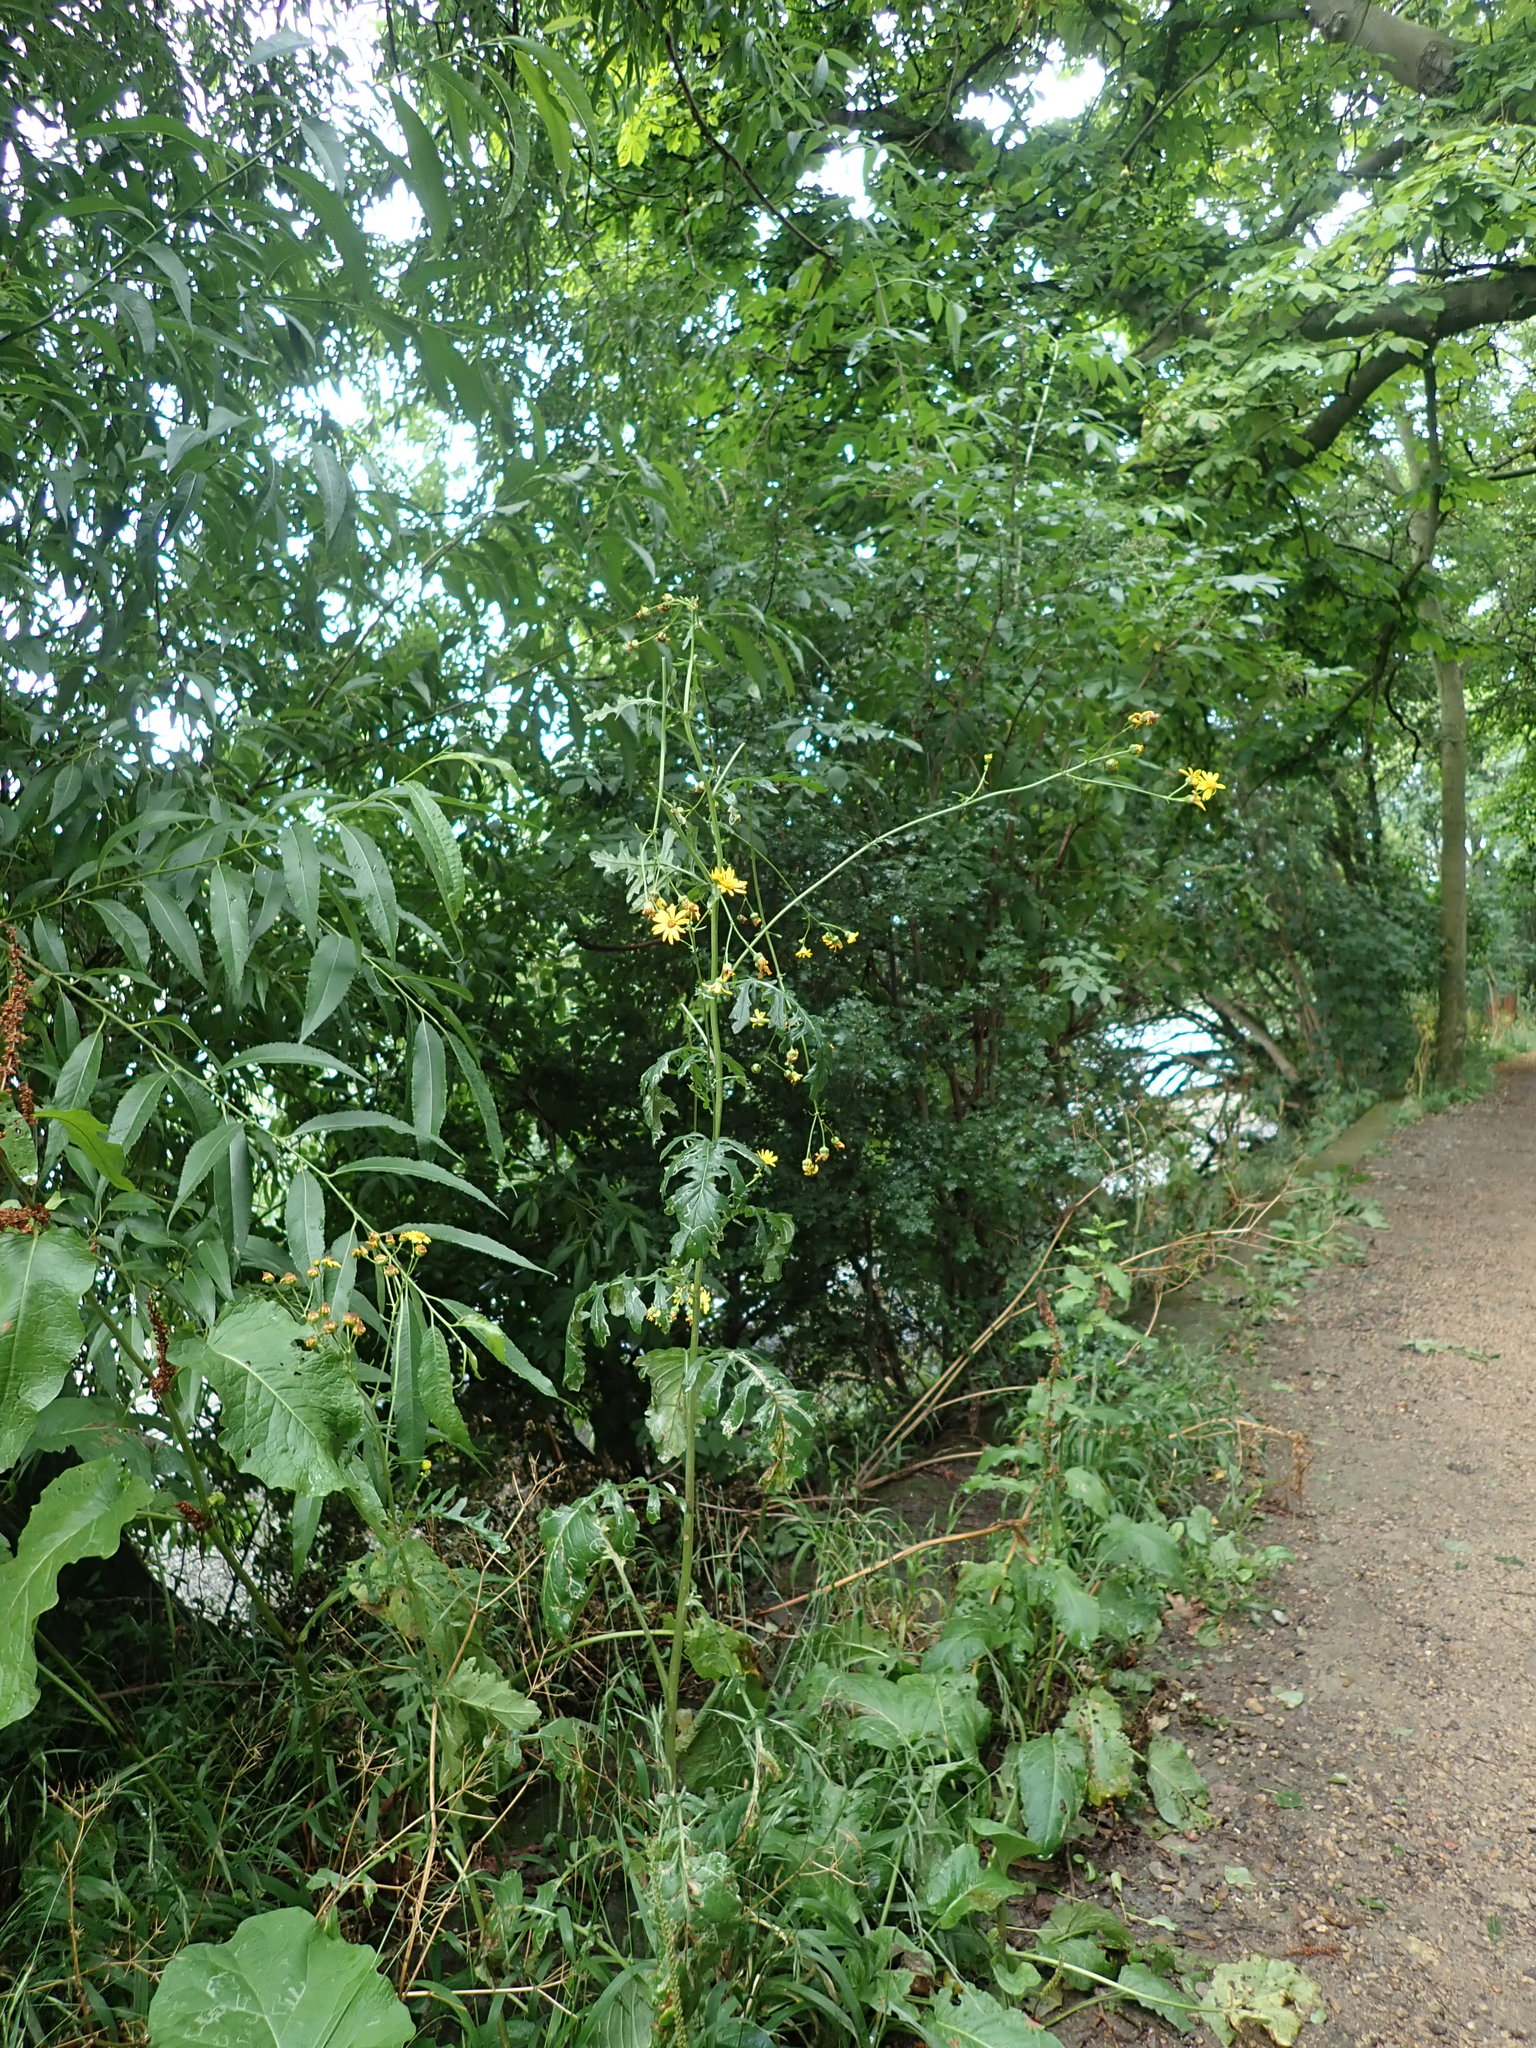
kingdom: Plantae
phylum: Tracheophyta
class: Magnoliopsida
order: Asterales
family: Asteraceae
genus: Jacobaea
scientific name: Jacobaea aquatica
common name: Water ragwort
